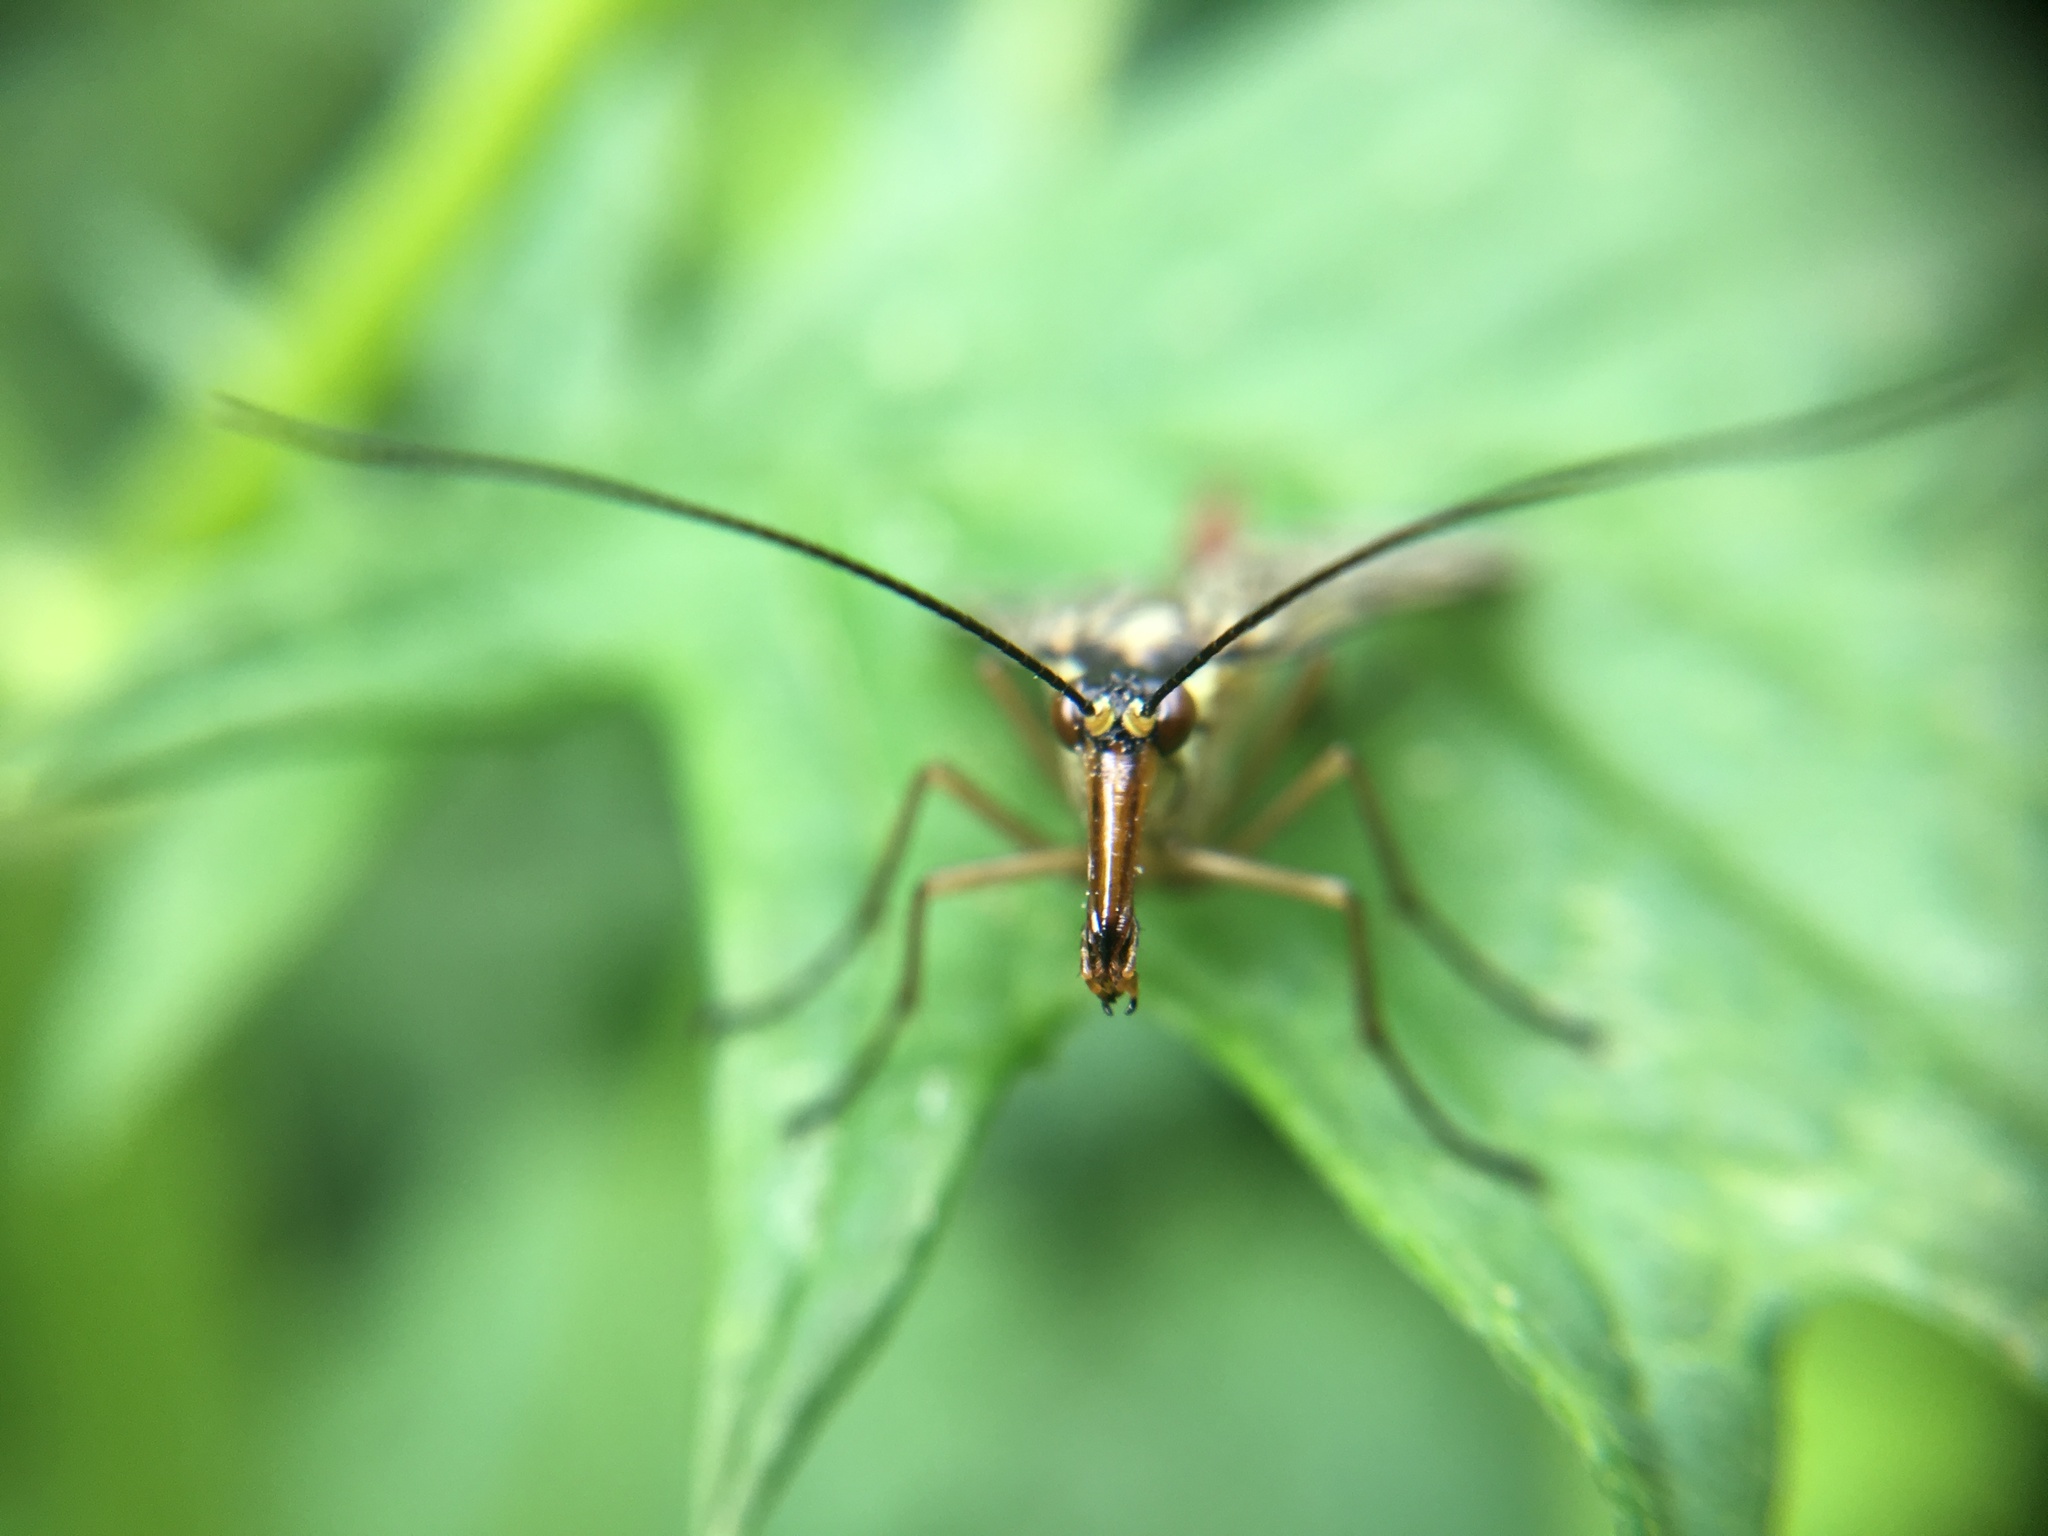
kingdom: Animalia
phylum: Arthropoda
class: Insecta
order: Mecoptera
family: Panorpidae
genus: Panorpa
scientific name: Panorpa communis
